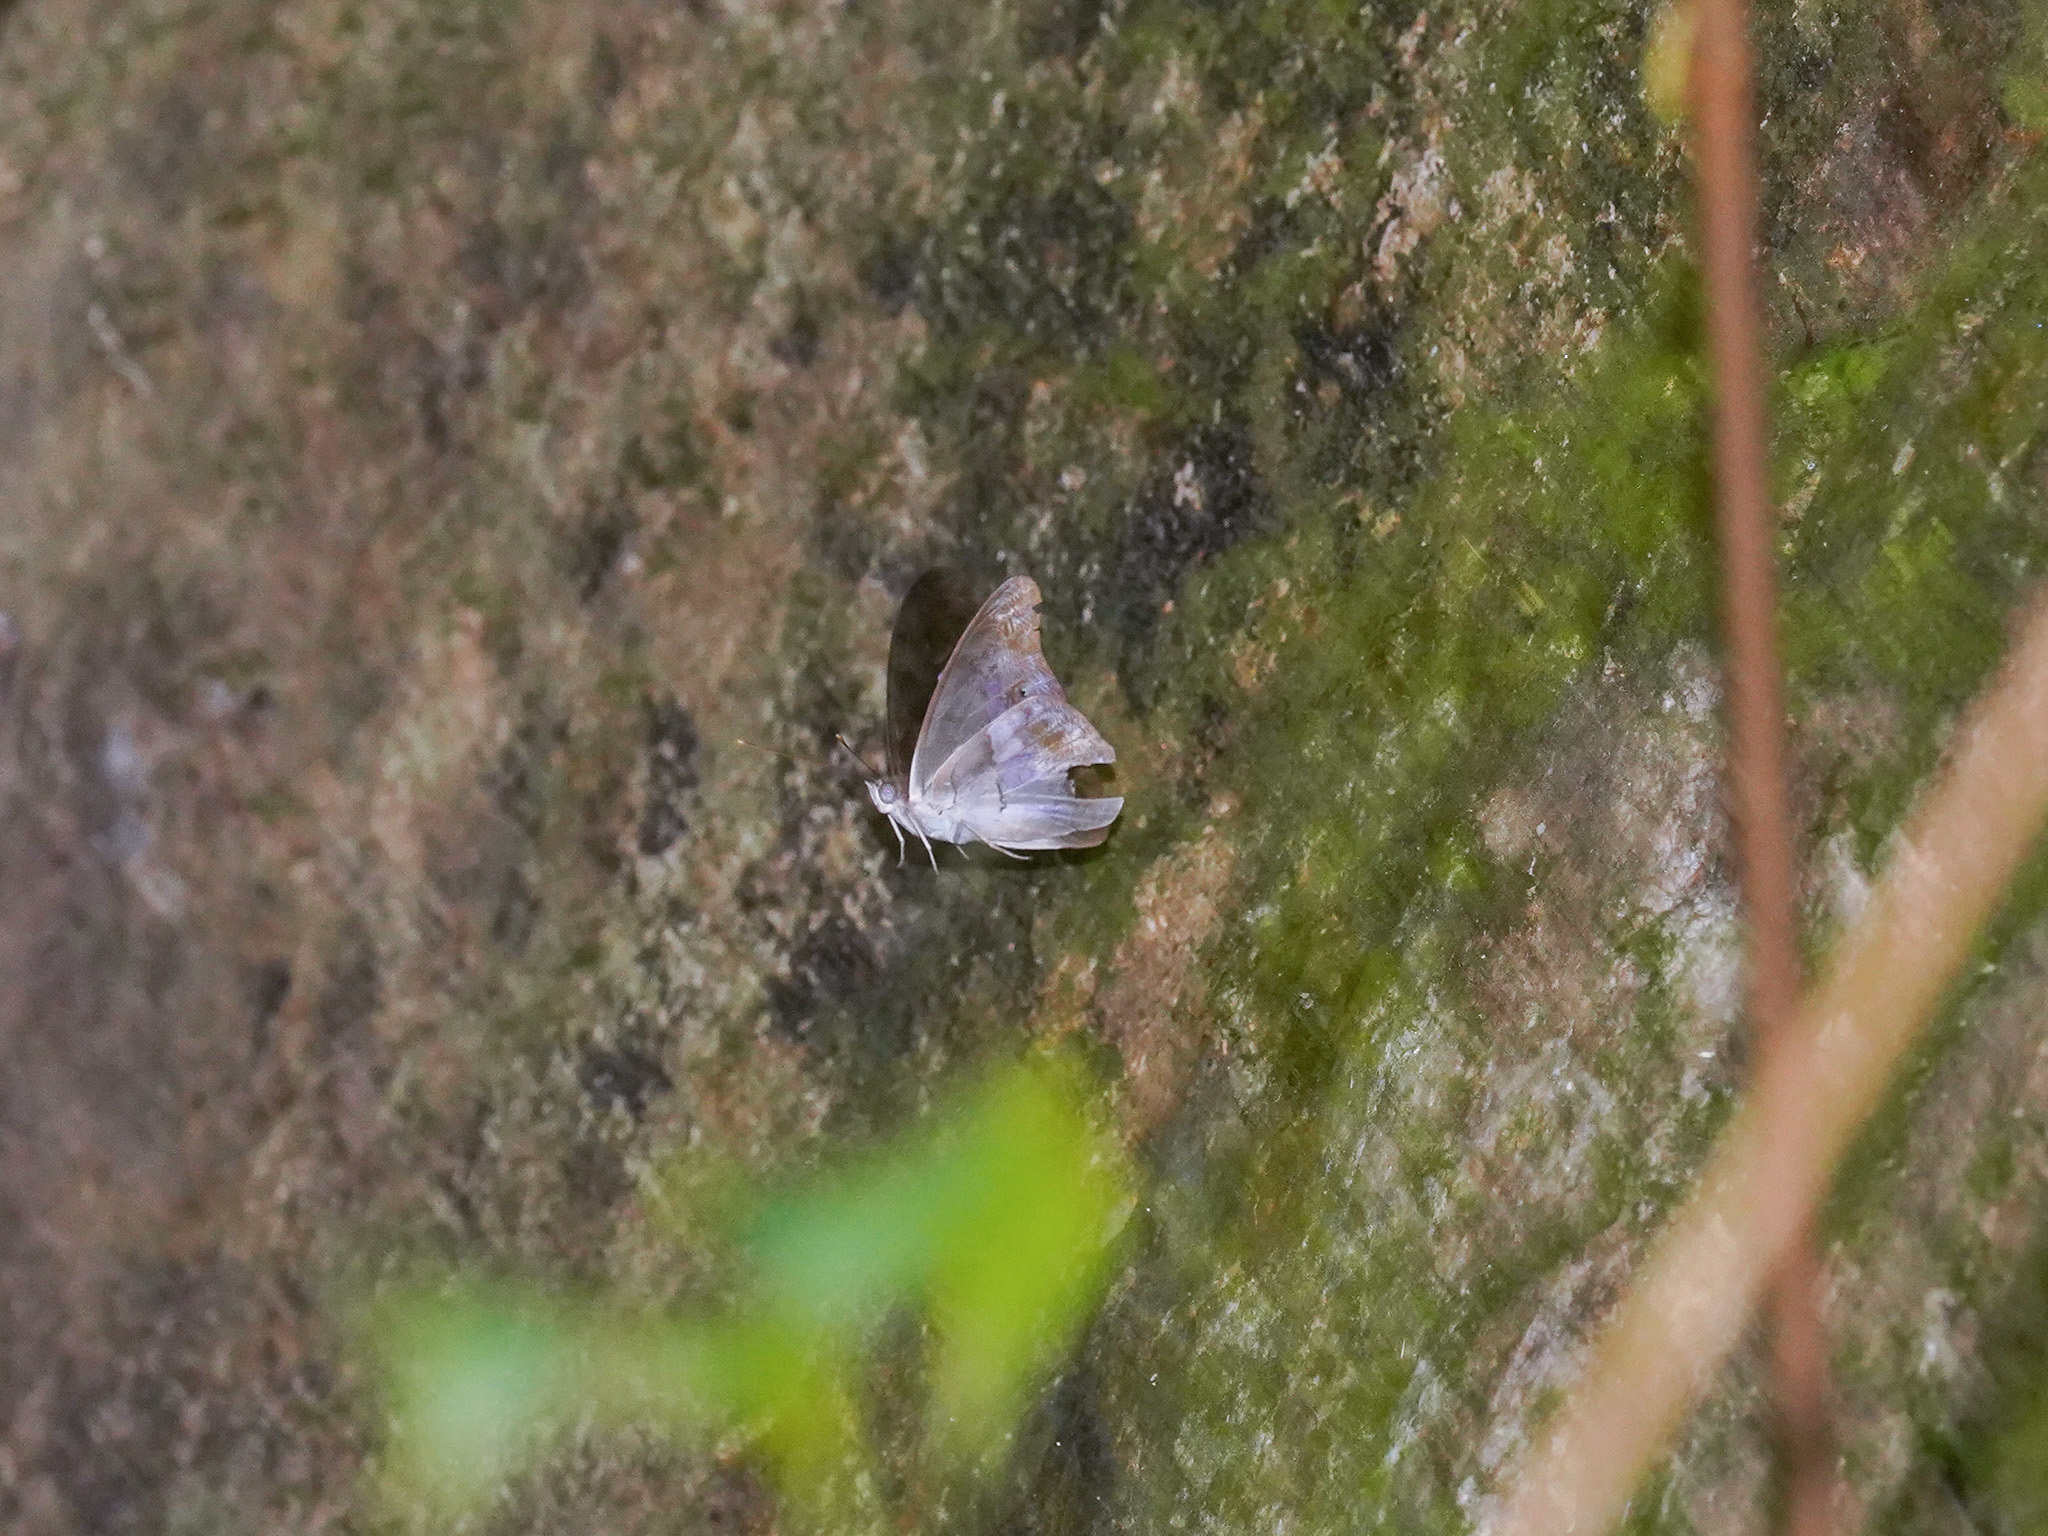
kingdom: Animalia
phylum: Arthropoda
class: Insecta
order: Lepidoptera
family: Nymphalidae
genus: Eulaceura
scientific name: Eulaceura osteria
